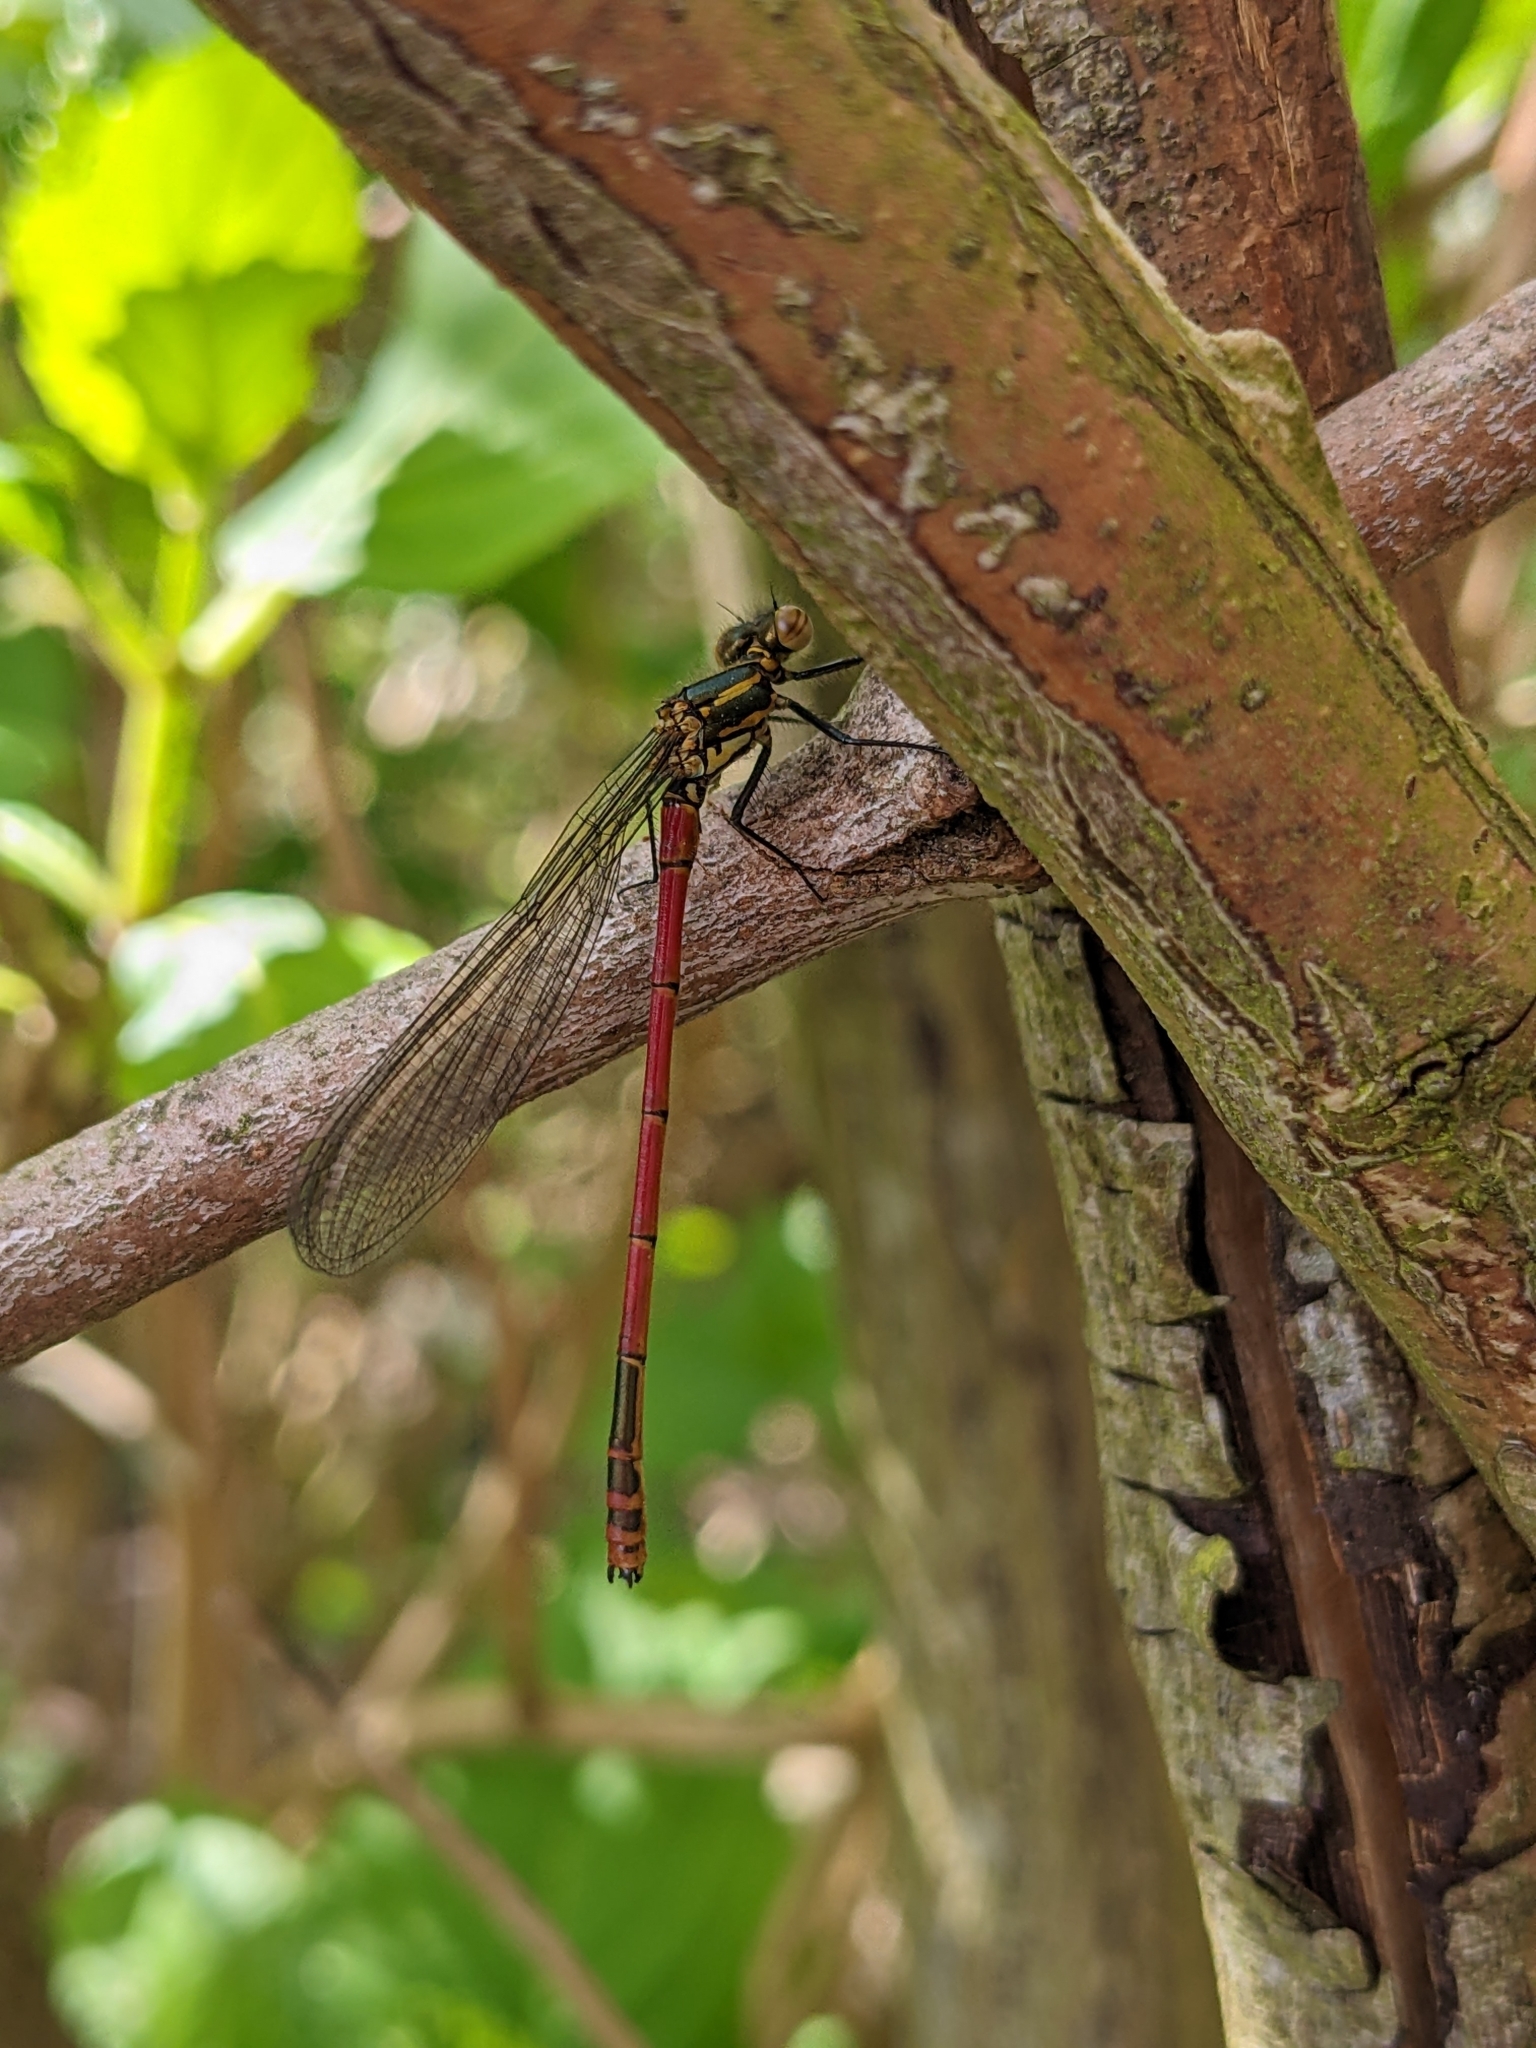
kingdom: Animalia
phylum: Arthropoda
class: Insecta
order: Odonata
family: Coenagrionidae
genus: Pyrrhosoma
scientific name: Pyrrhosoma nymphula
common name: Large red damsel
